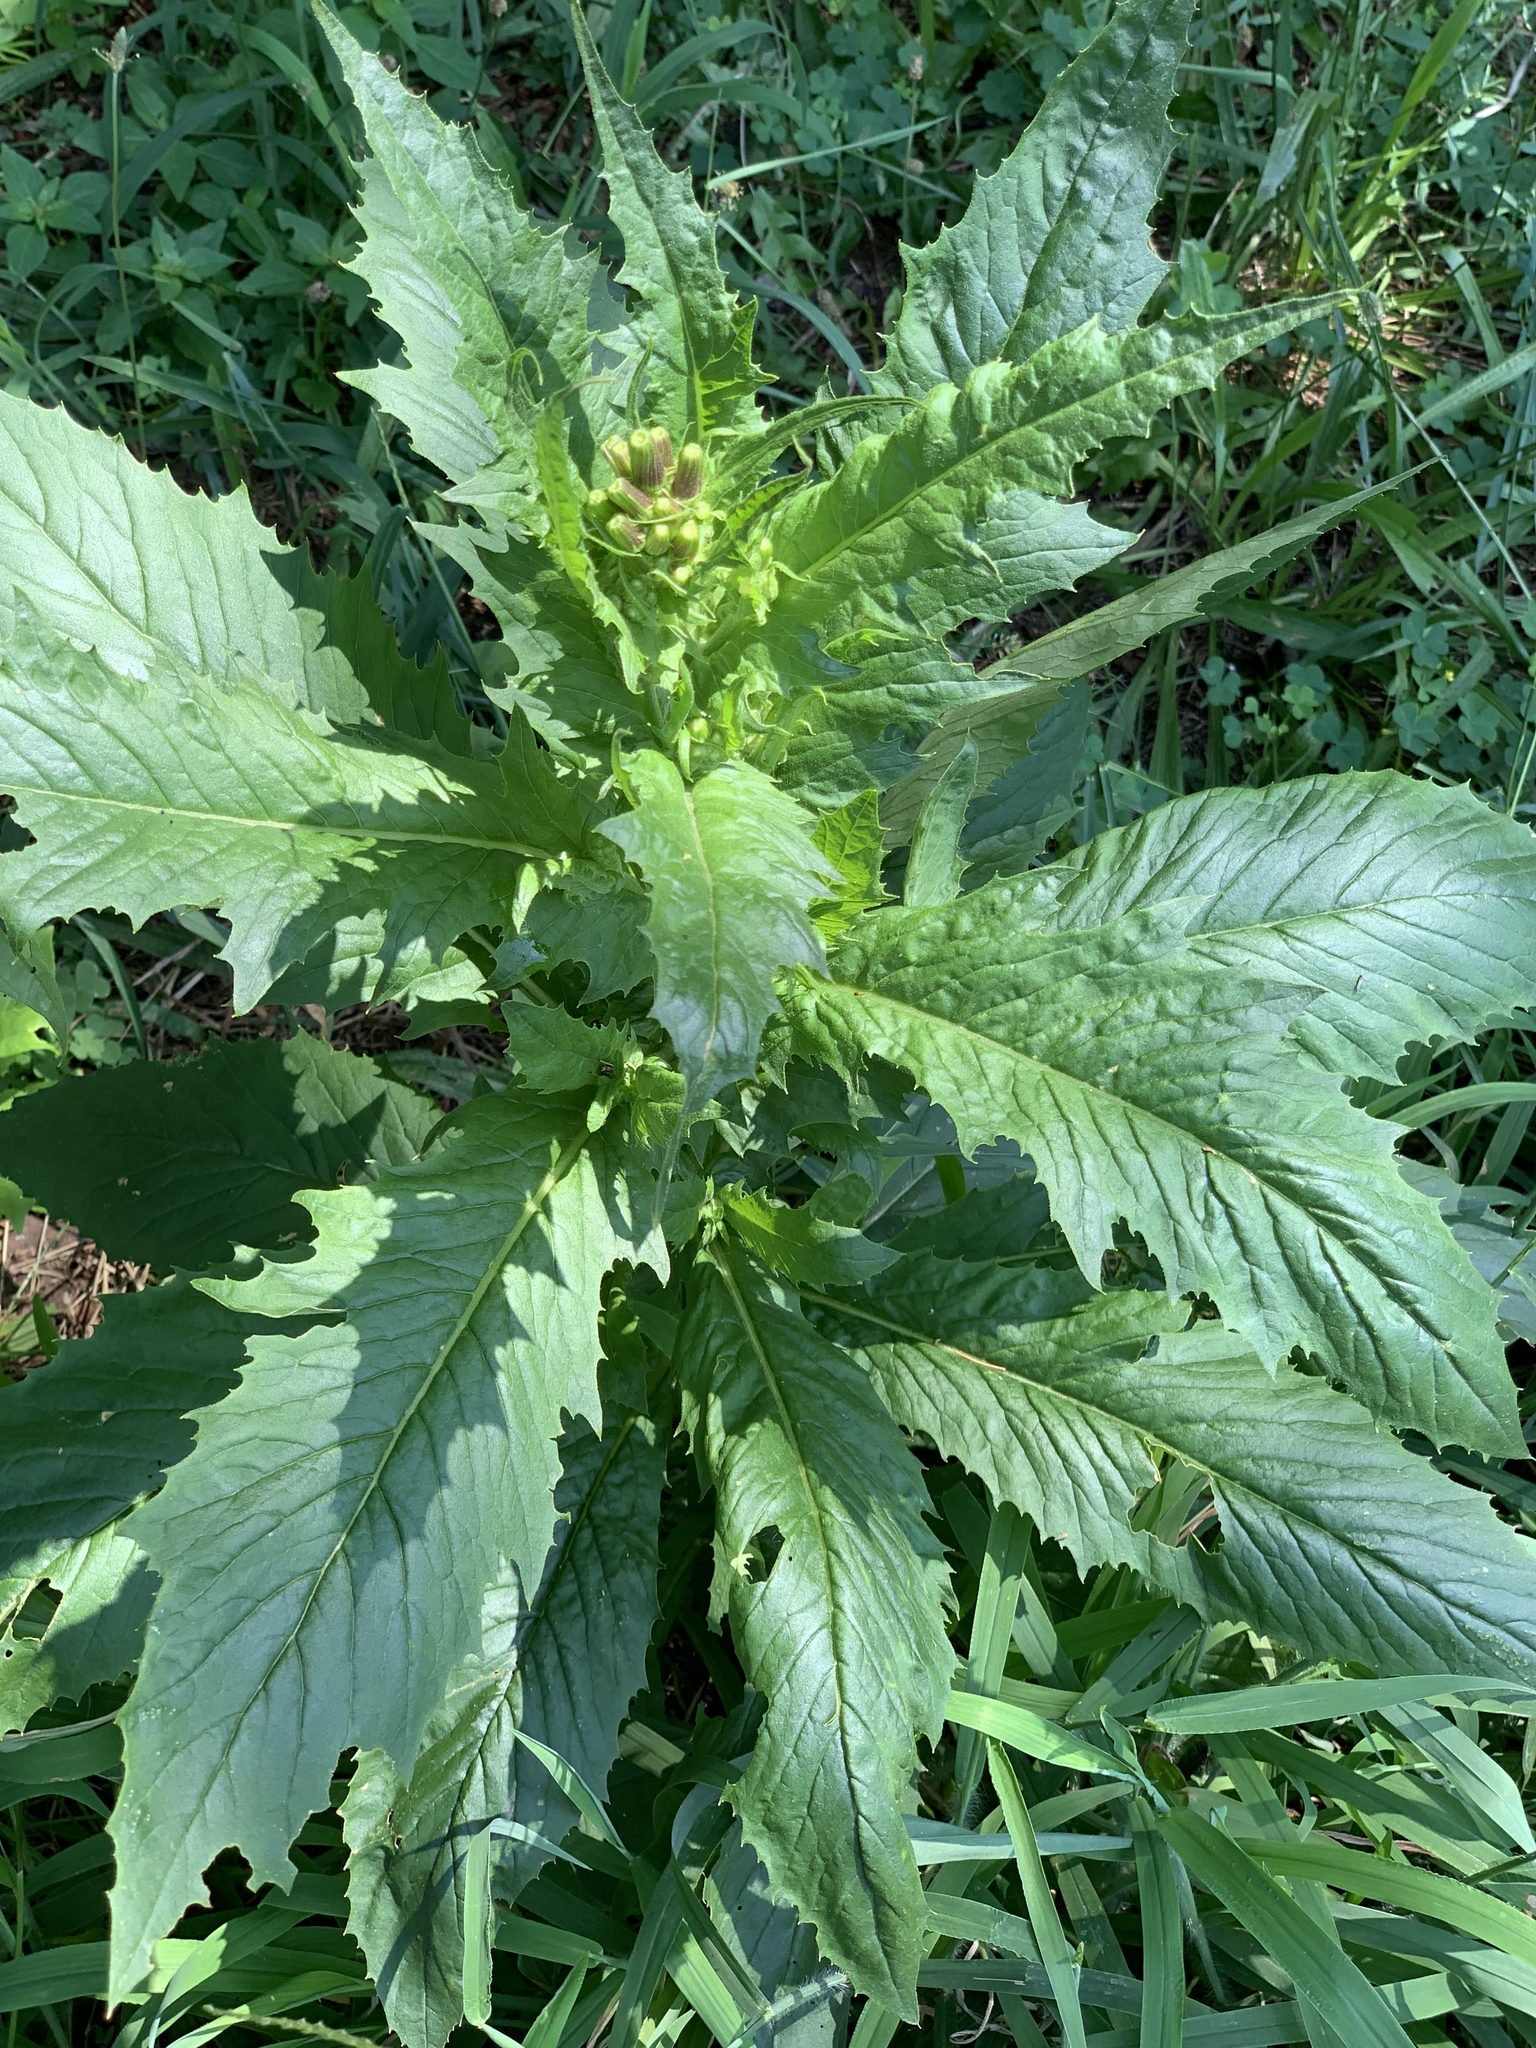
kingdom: Plantae
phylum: Tracheophyta
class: Magnoliopsida
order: Asterales
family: Asteraceae
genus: Erechtites
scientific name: Erechtites hieraciifolius
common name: American burnweed
